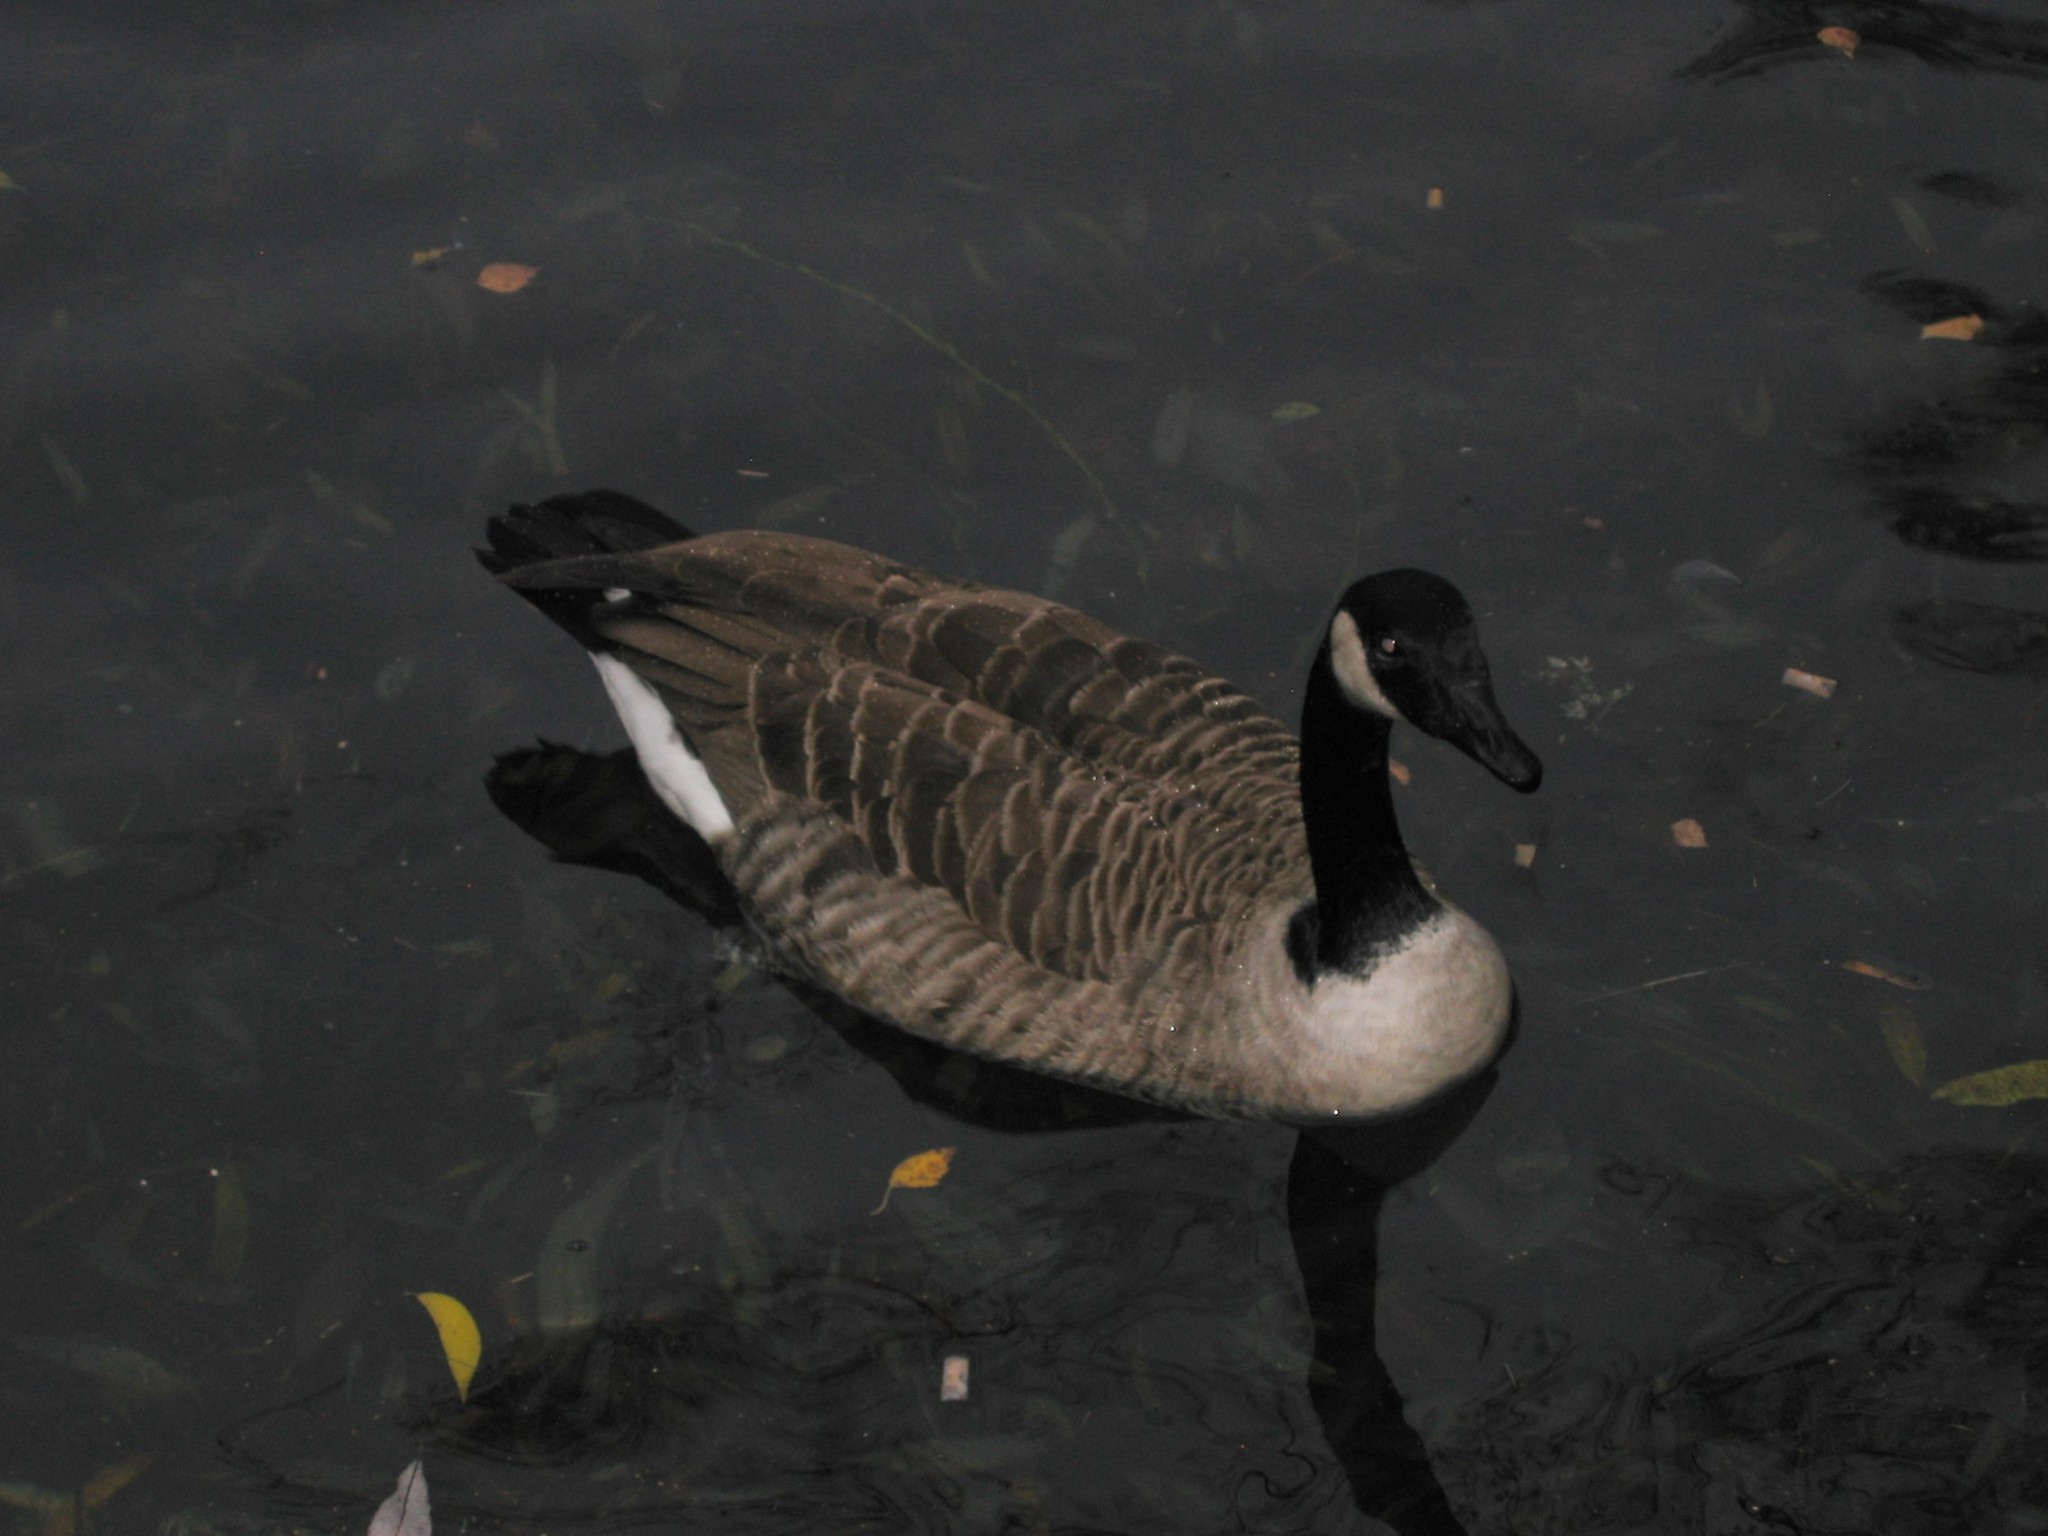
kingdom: Animalia
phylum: Chordata
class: Aves
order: Anseriformes
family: Anatidae
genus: Branta
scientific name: Branta canadensis
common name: Canada goose
